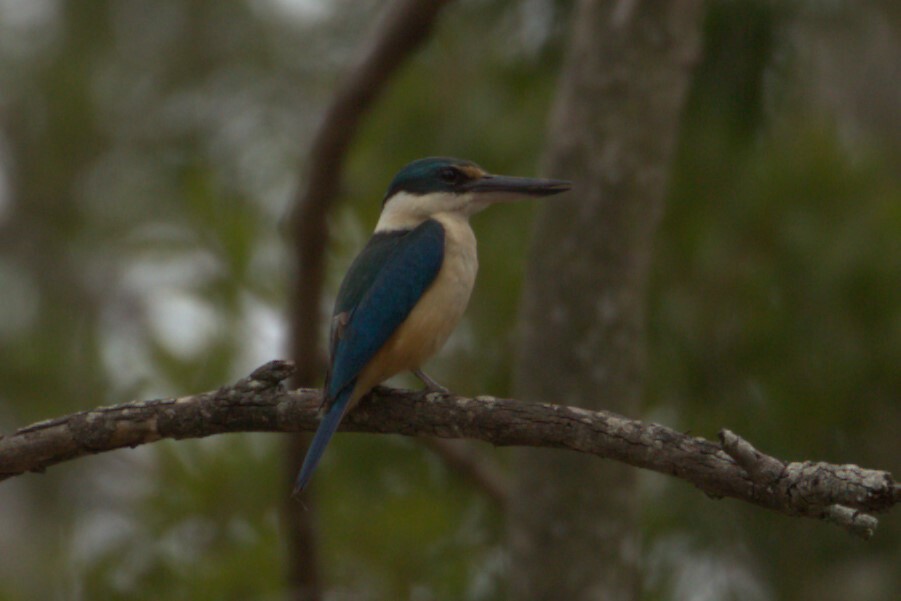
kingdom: Animalia
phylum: Chordata
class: Aves
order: Coraciiformes
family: Alcedinidae
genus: Todiramphus
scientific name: Todiramphus sanctus
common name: Sacred kingfisher
